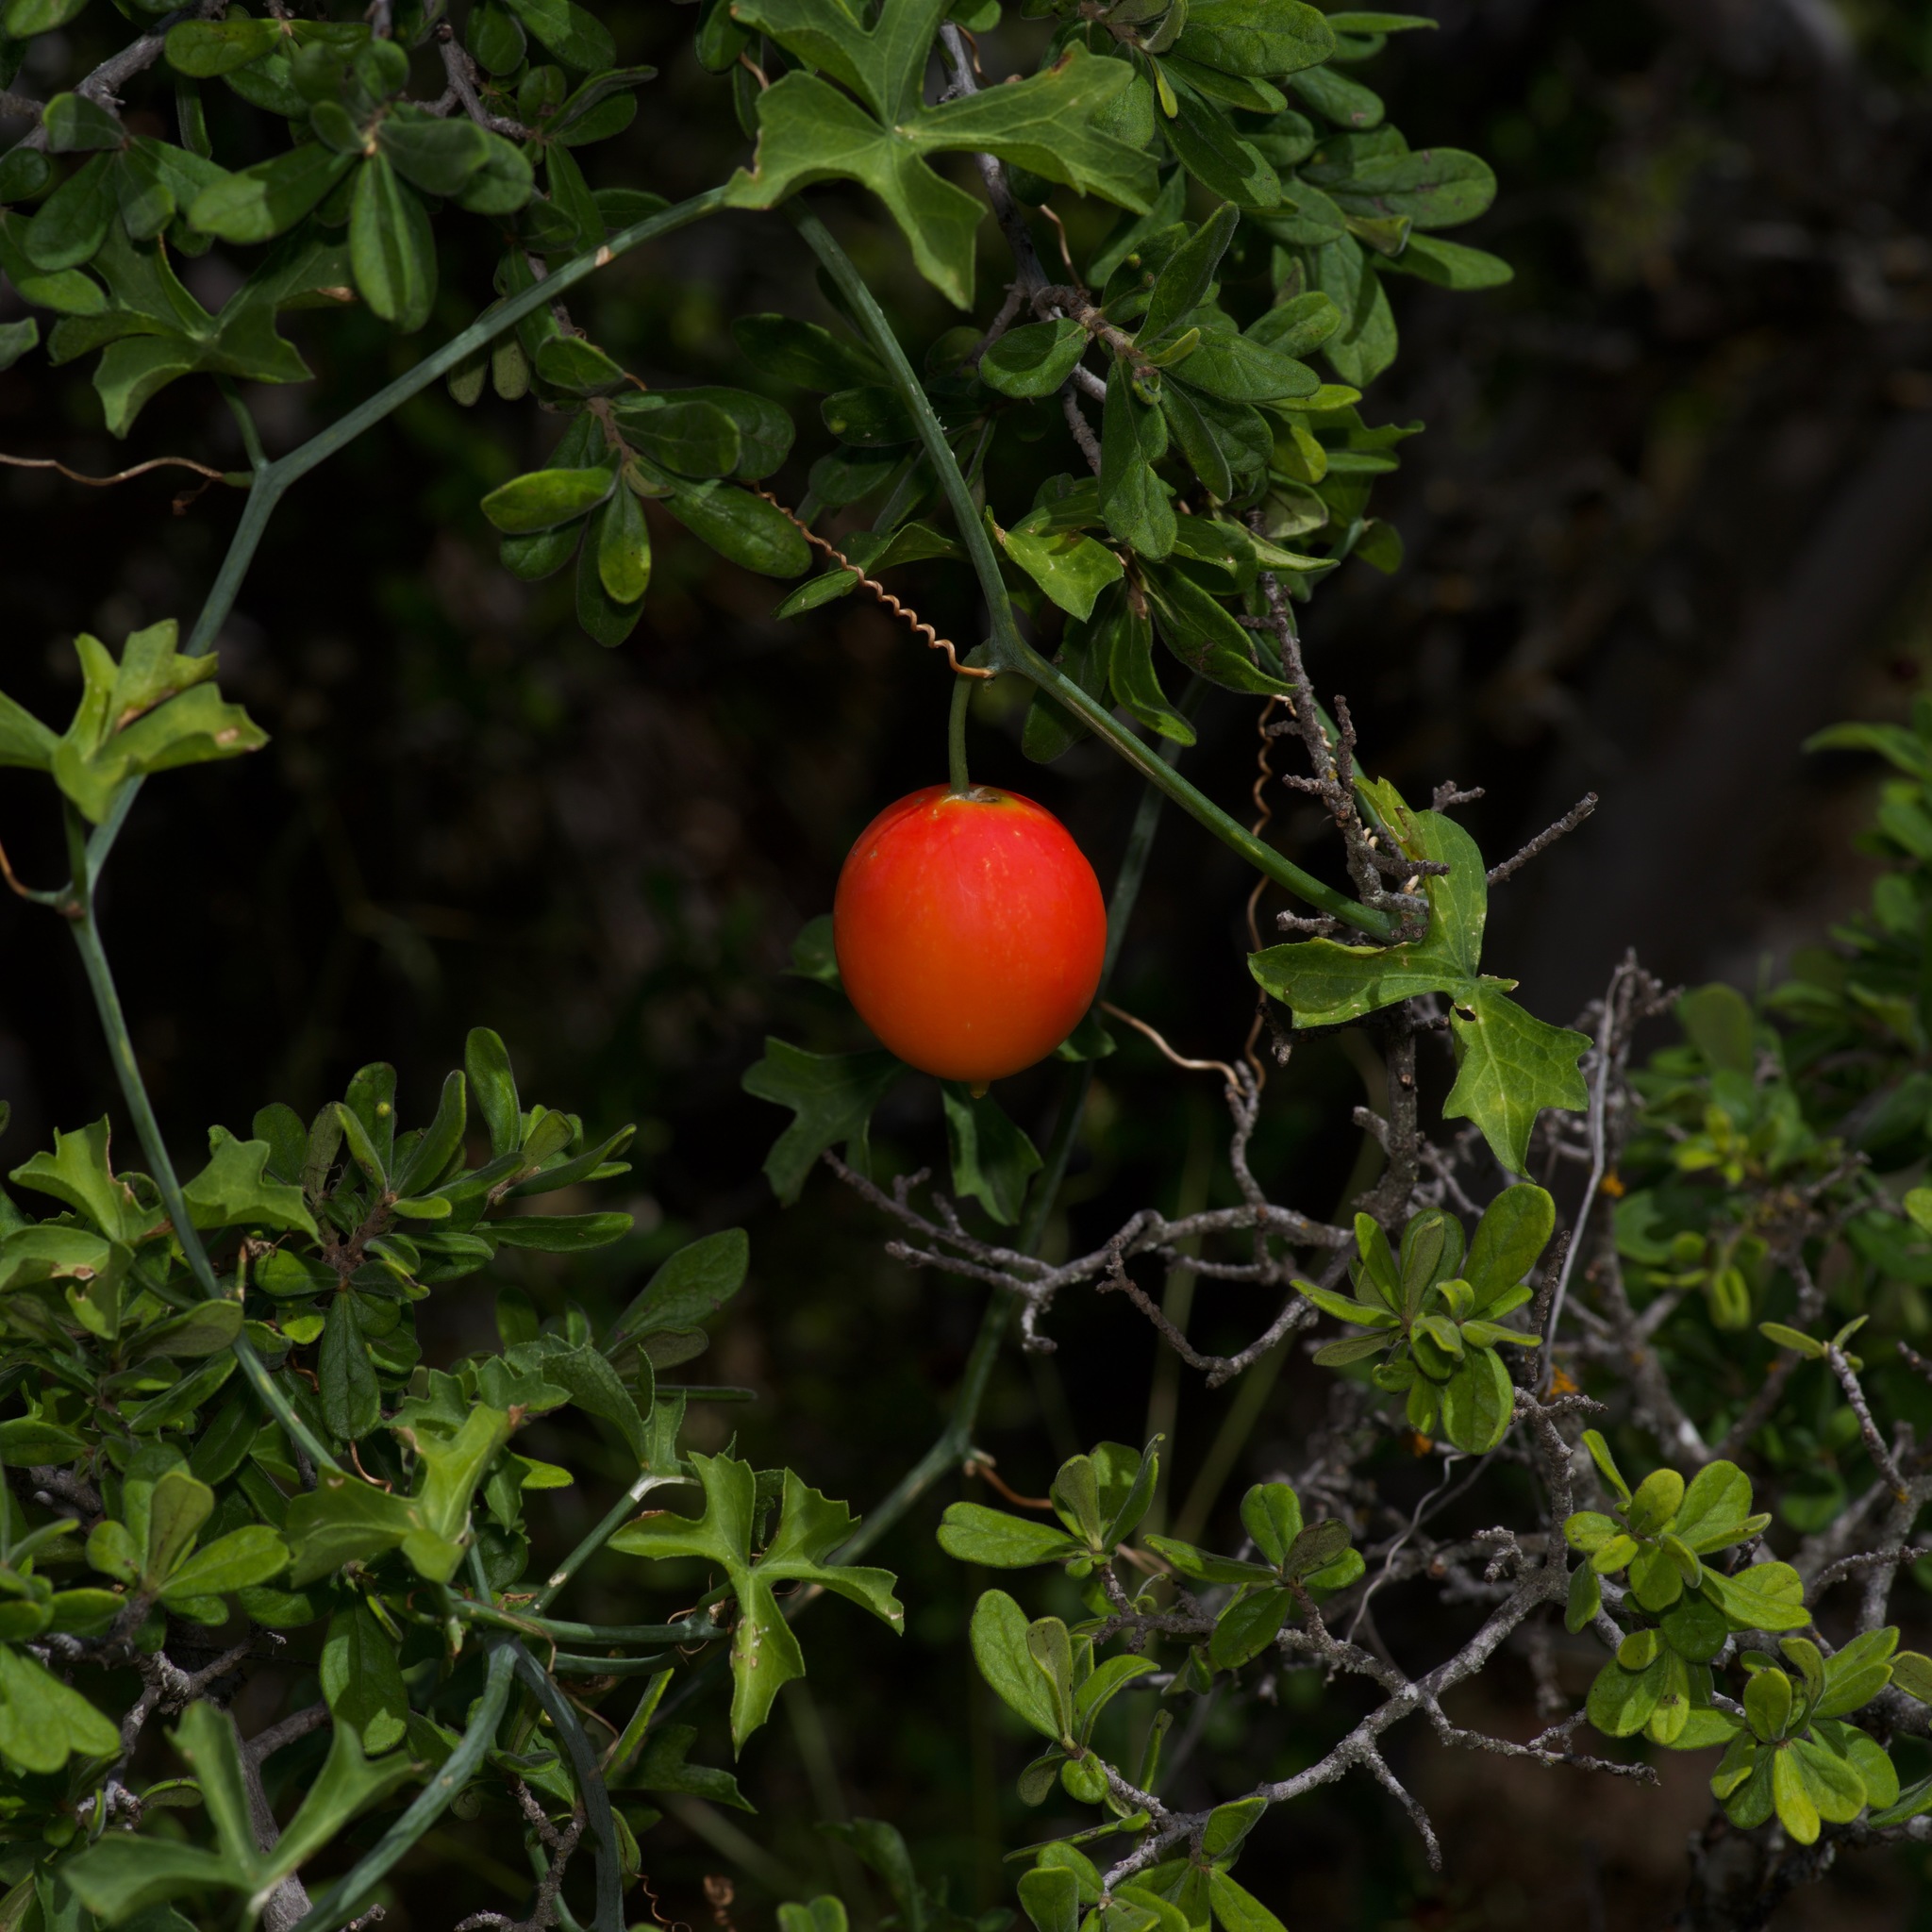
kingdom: Plantae
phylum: Tracheophyta
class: Magnoliopsida
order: Cucurbitales
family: Cucurbitaceae
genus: Ibervillea
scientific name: Ibervillea lindheimeri
